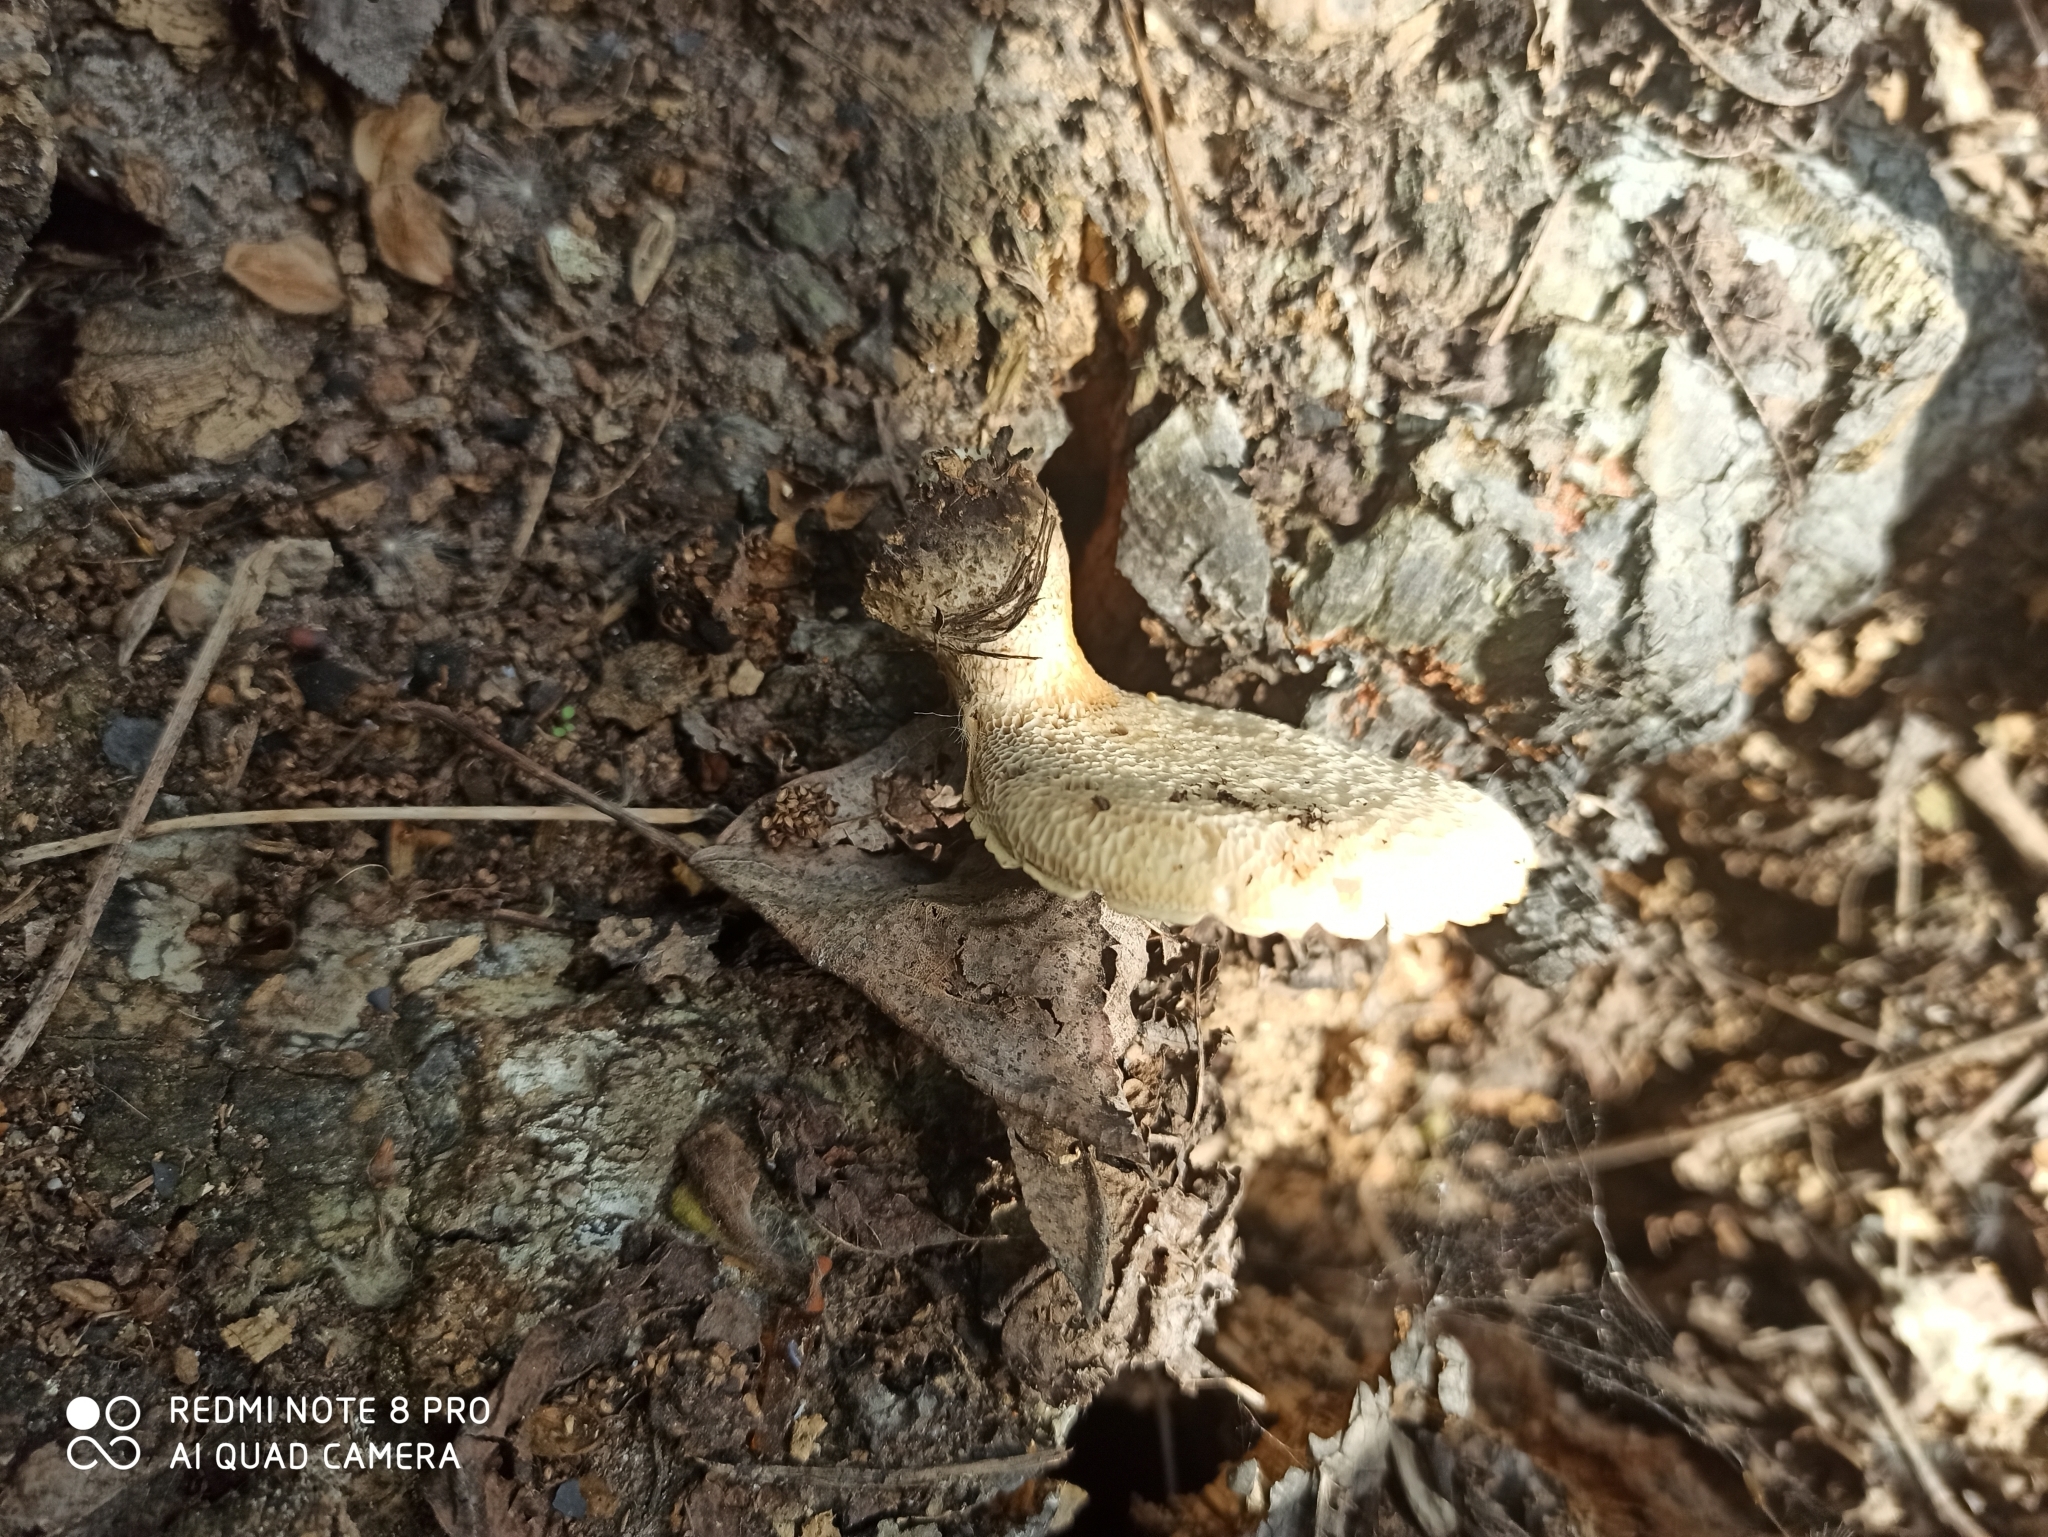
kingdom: Fungi
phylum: Basidiomycota
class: Agaricomycetes
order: Polyporales
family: Polyporaceae
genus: Cerioporus
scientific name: Cerioporus squamosus
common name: Dryad's saddle
